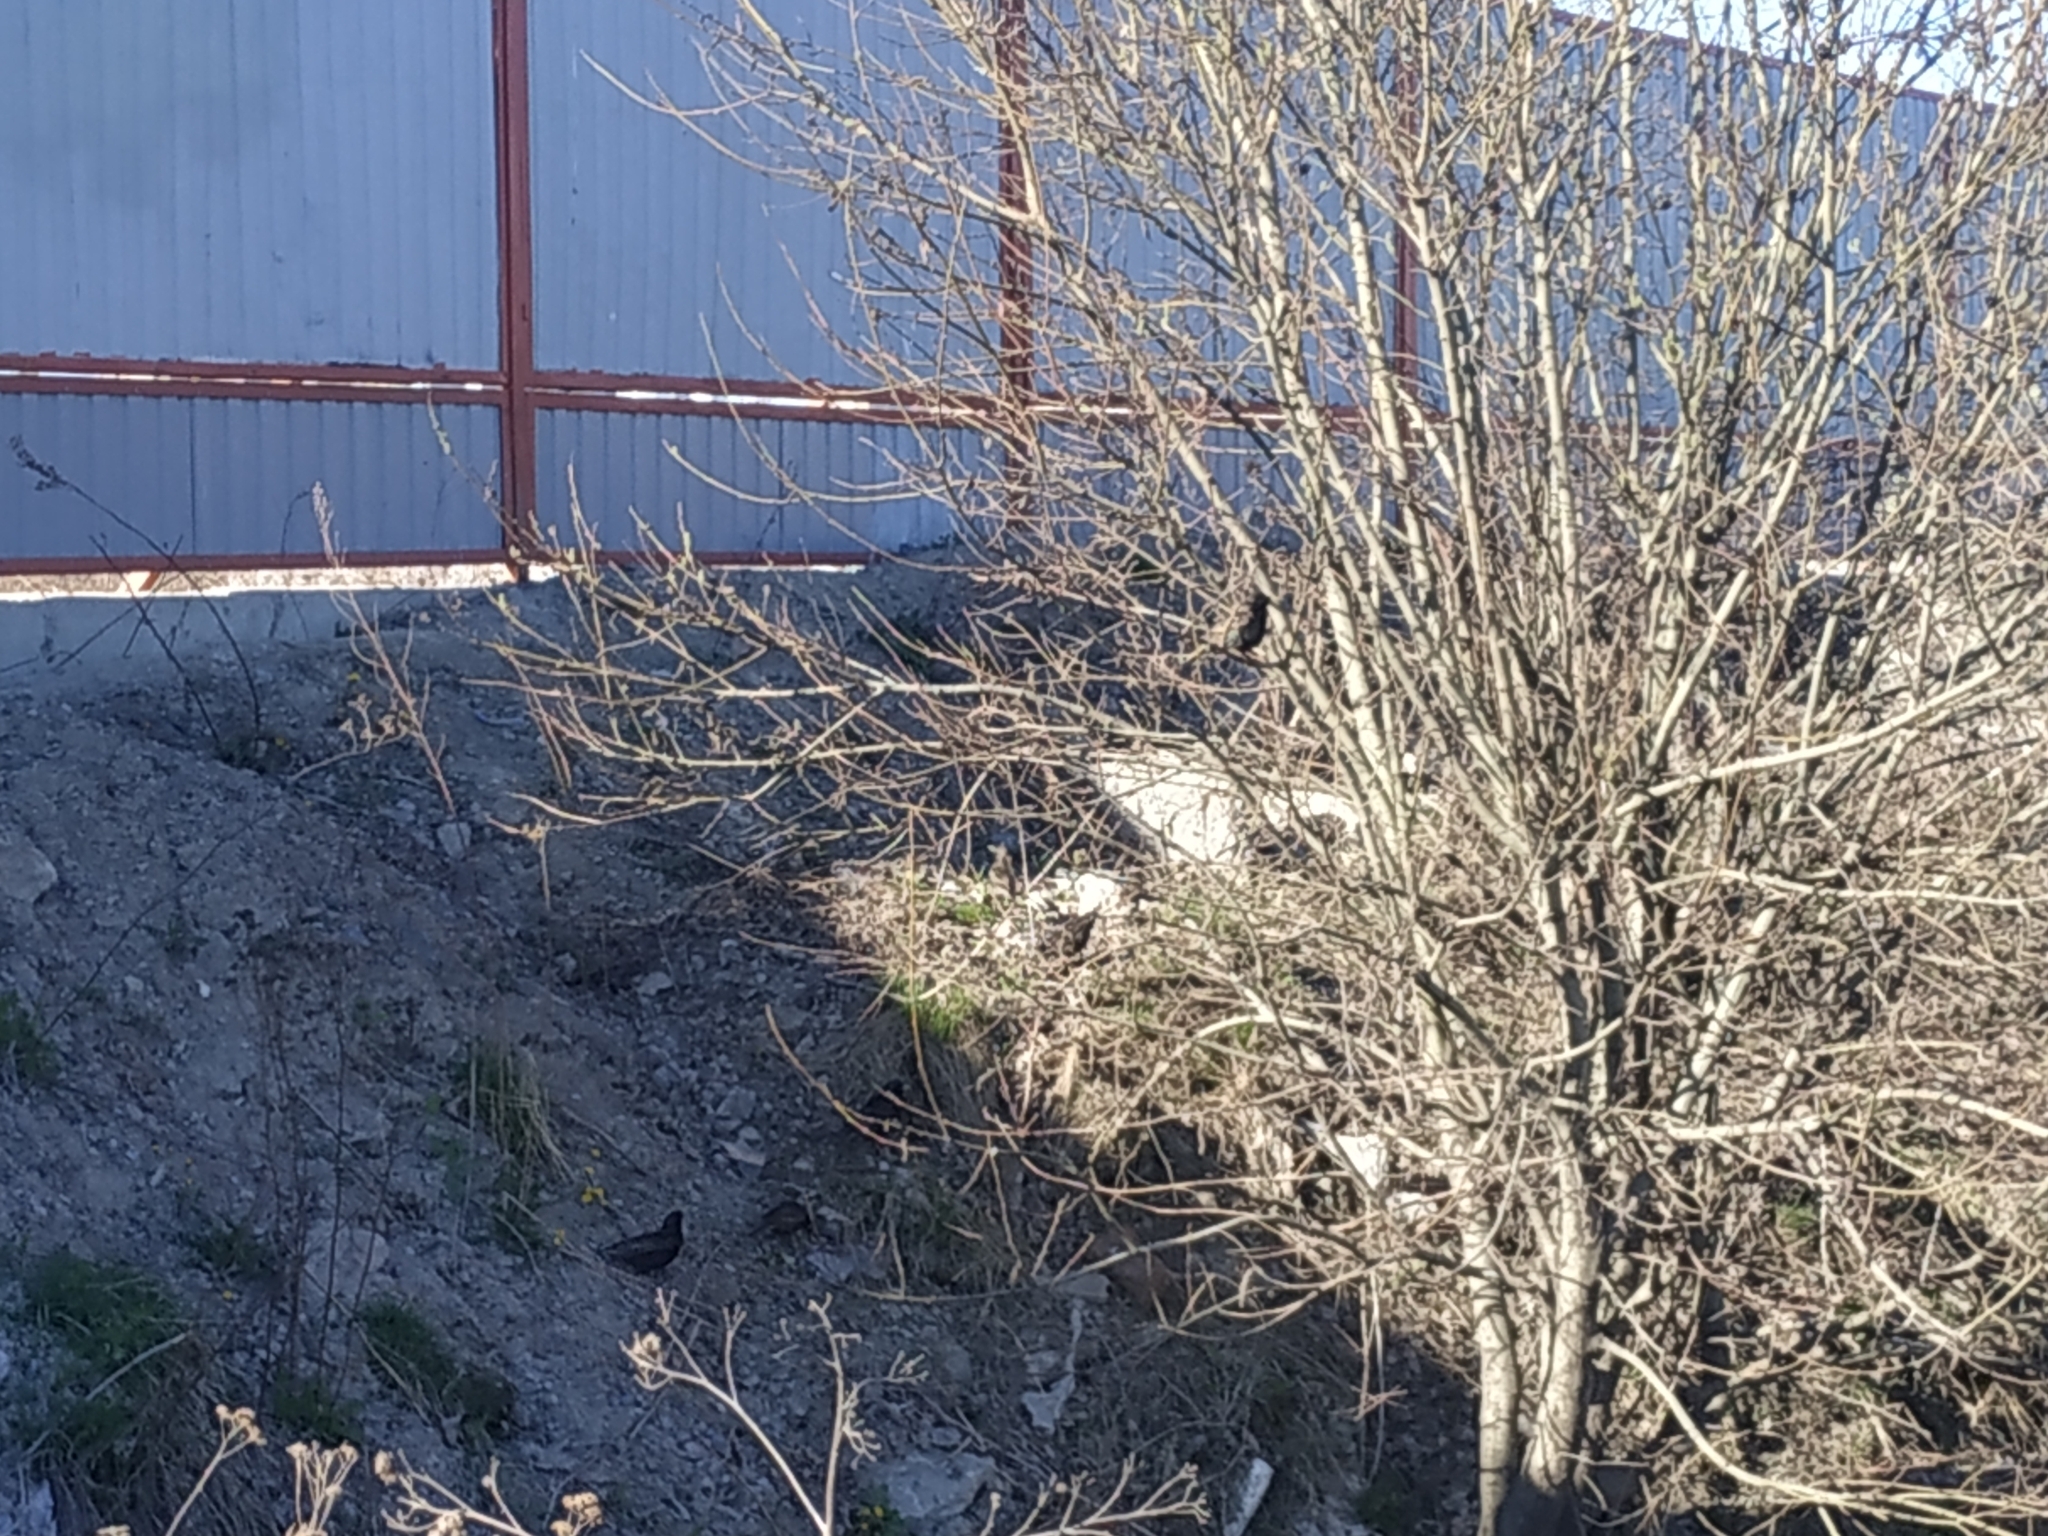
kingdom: Animalia
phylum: Chordata
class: Aves
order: Passeriformes
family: Sturnidae
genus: Sturnus
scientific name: Sturnus vulgaris
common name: Common starling
